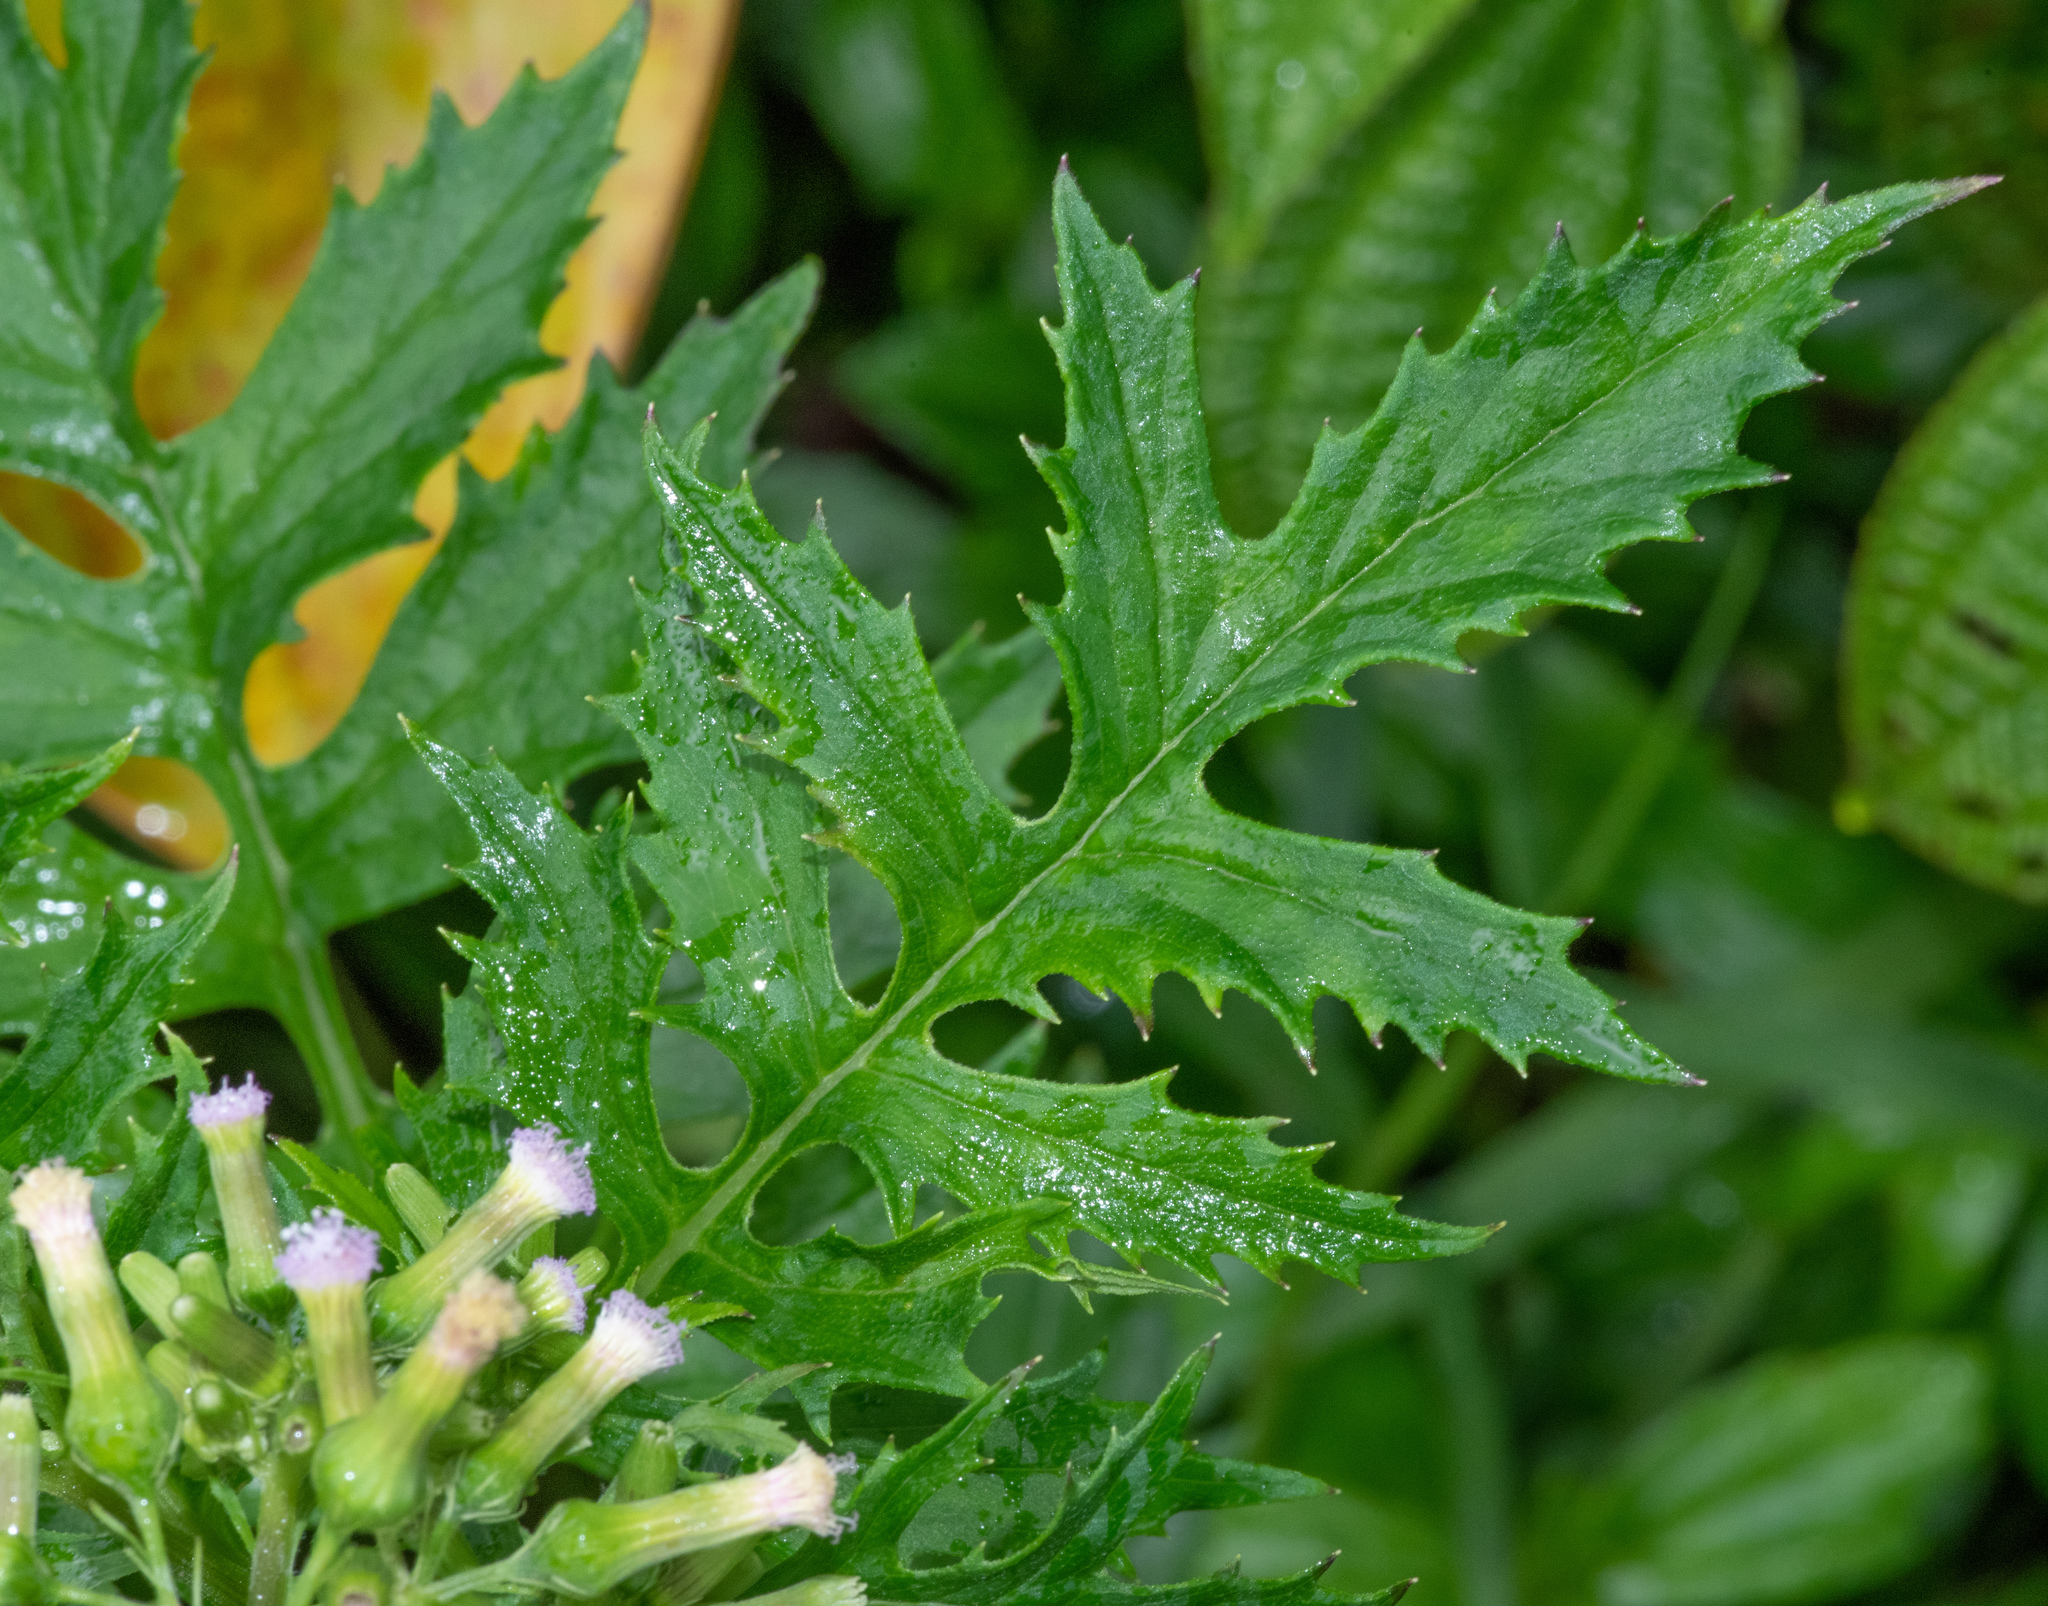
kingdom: Plantae
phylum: Tracheophyta
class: Magnoliopsida
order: Asterales
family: Asteraceae
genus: Erechtites
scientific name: Erechtites valerianifolius
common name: Tropical burnweed
